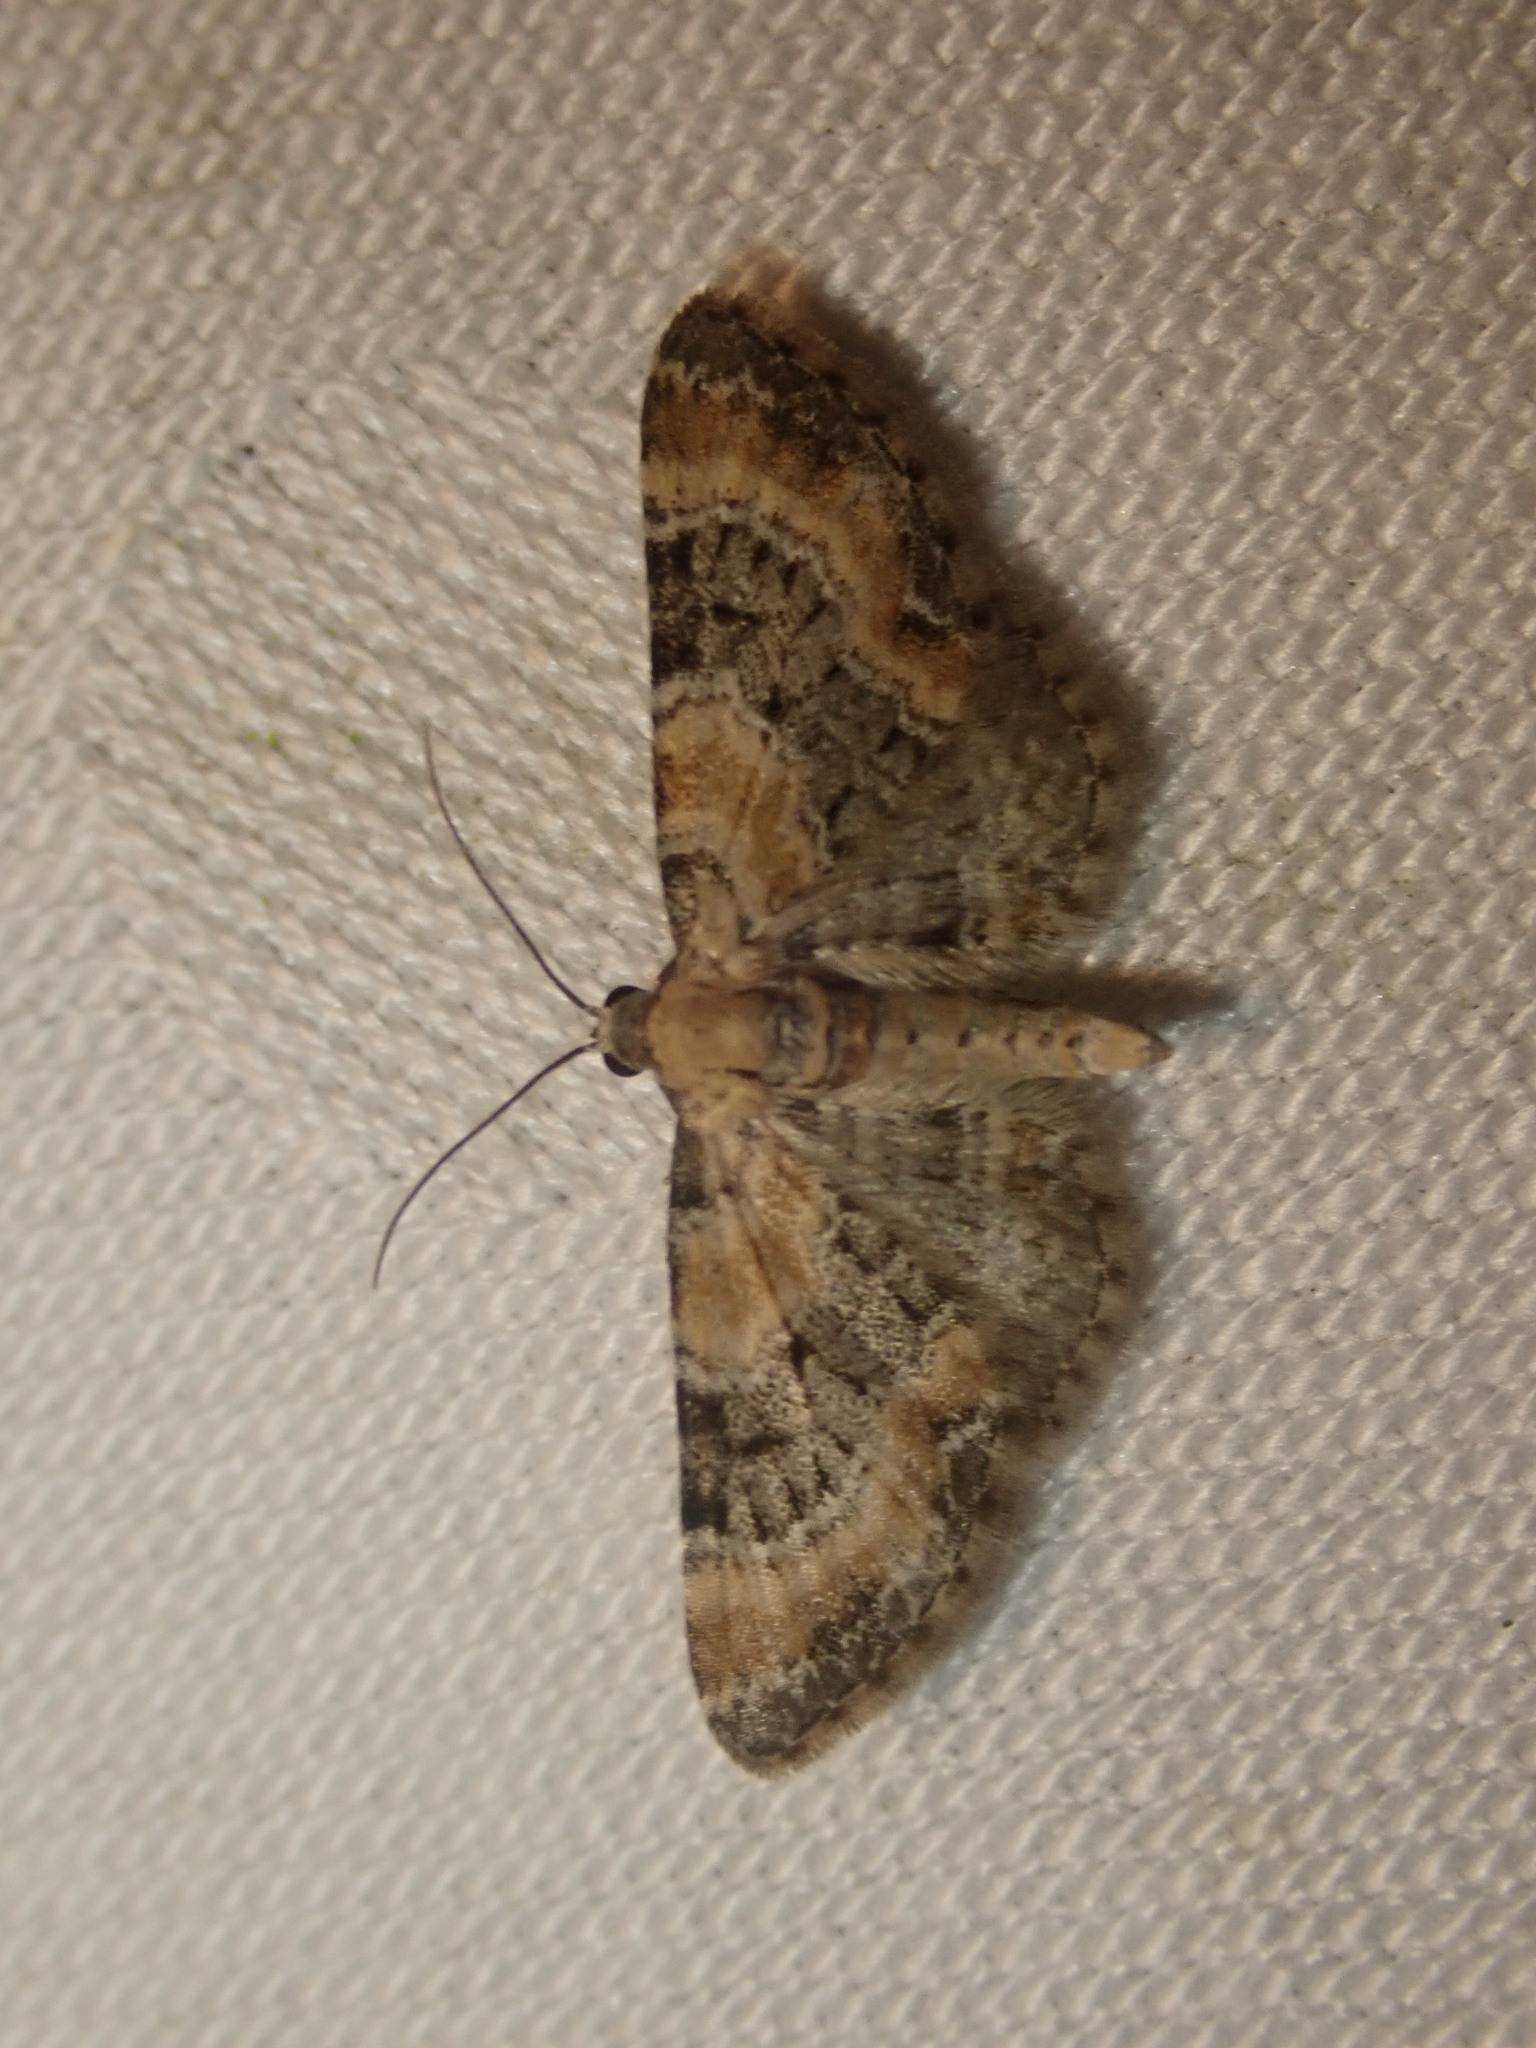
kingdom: Animalia
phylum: Arthropoda
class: Insecta
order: Lepidoptera
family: Geometridae
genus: Eupithecia
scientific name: Eupithecia pulchellata
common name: Foxglove pug
